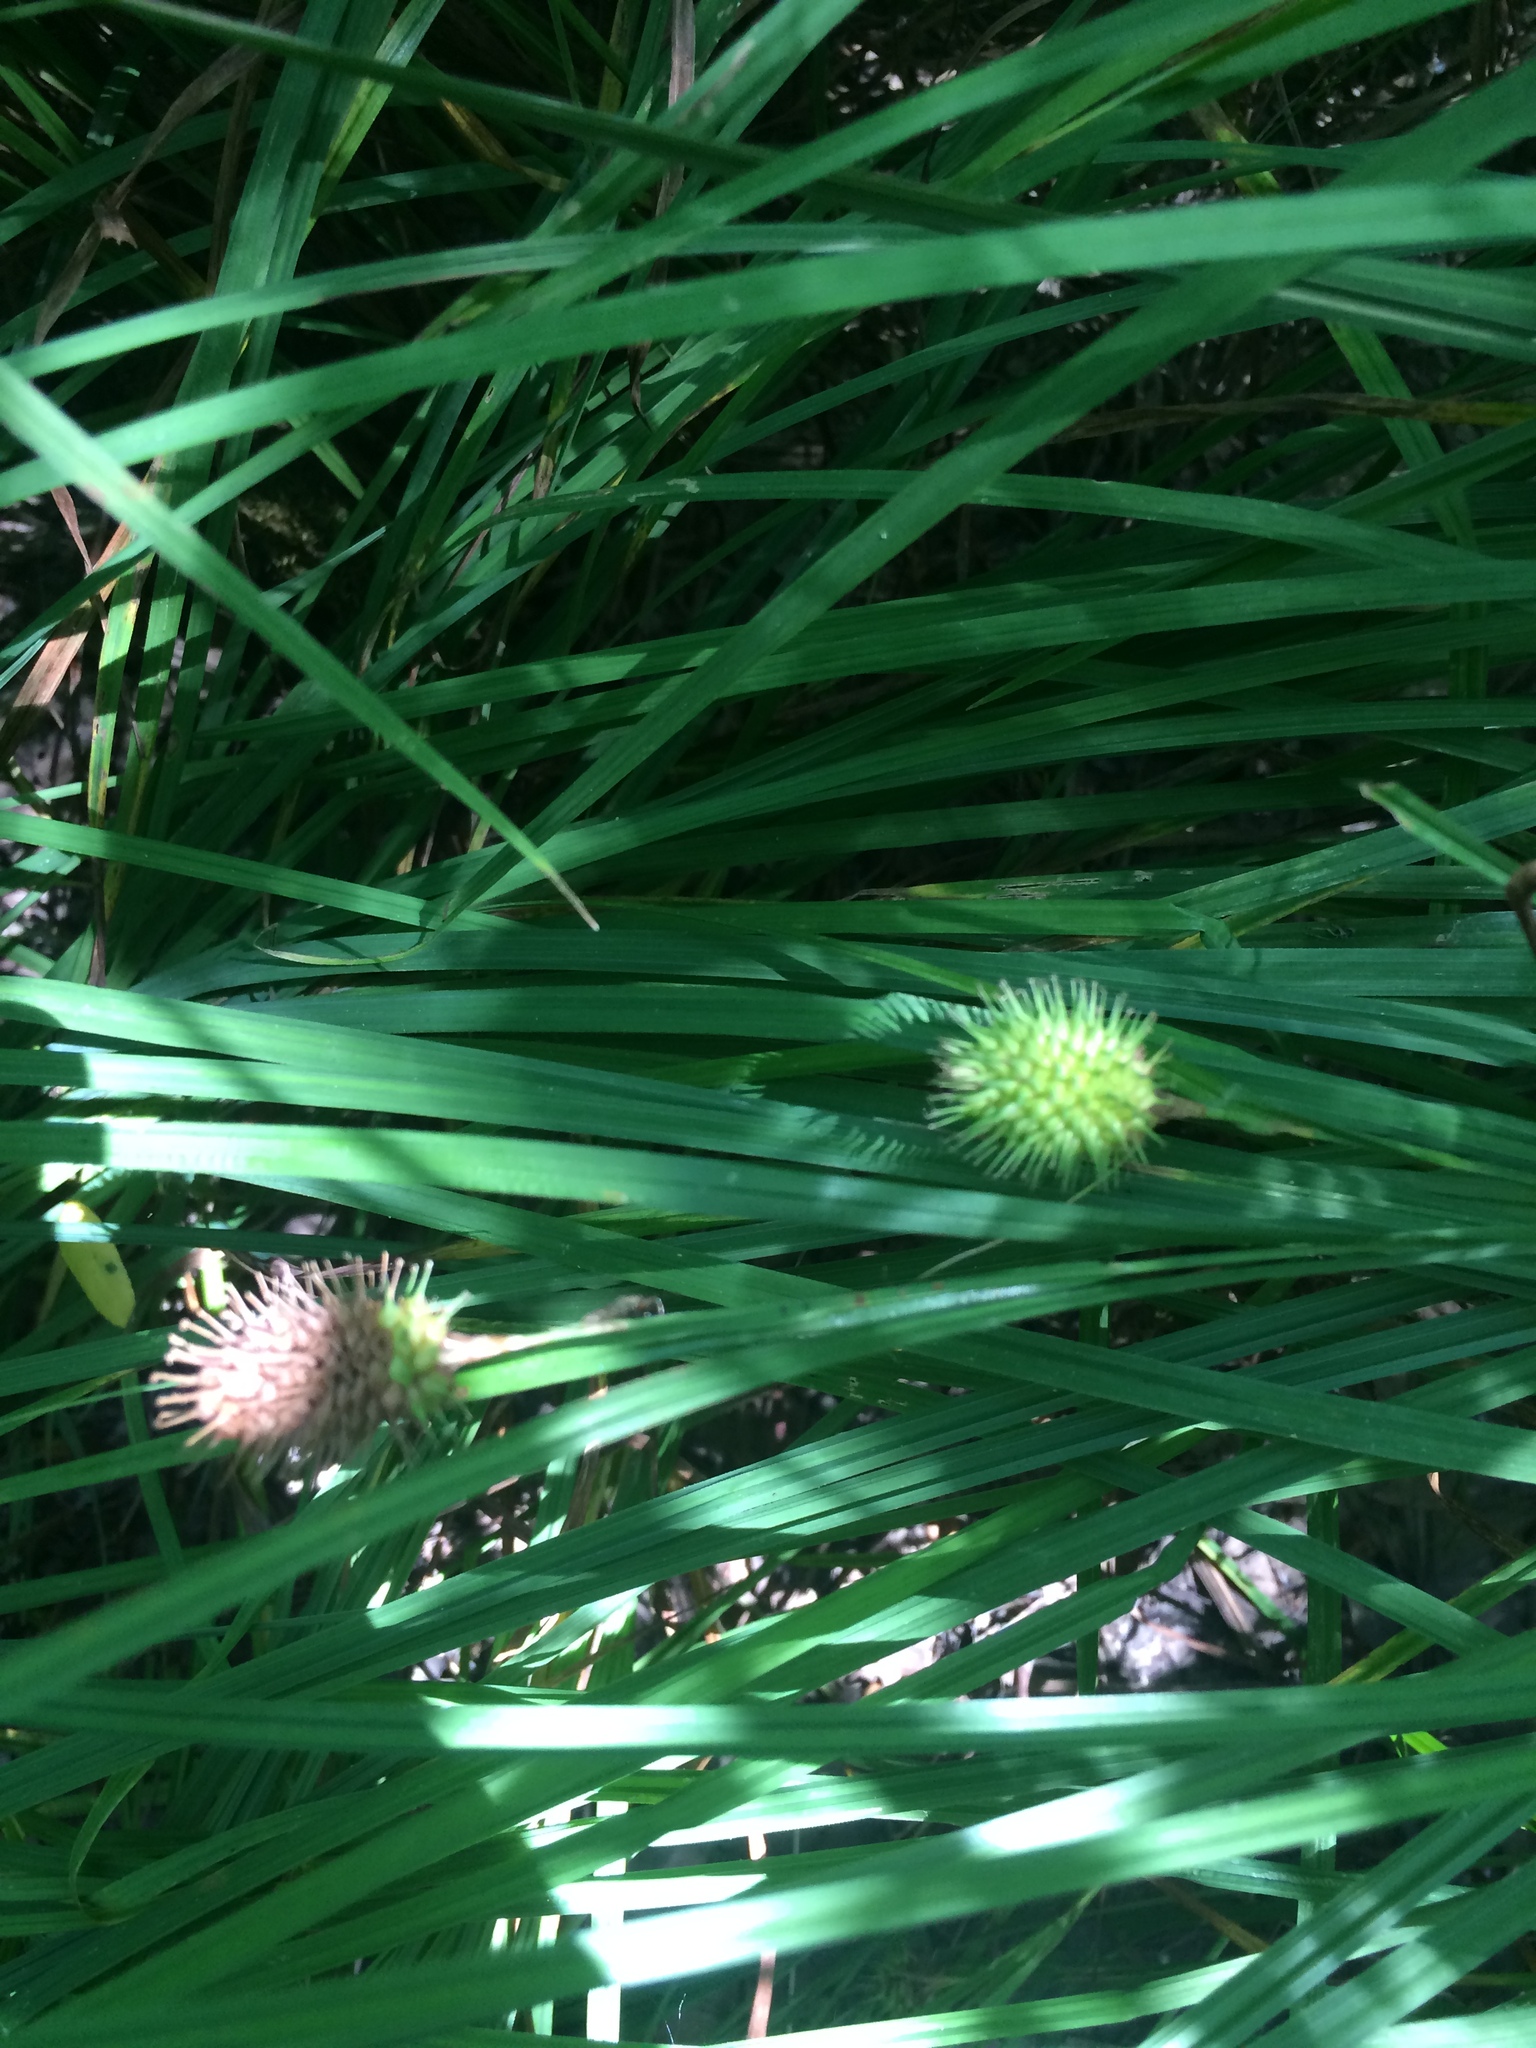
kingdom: Plantae
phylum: Tracheophyta
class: Liliopsida
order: Poales
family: Cyperaceae
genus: Carex
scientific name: Carex squarrosa
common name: Narrow-leaved cattail sedge
